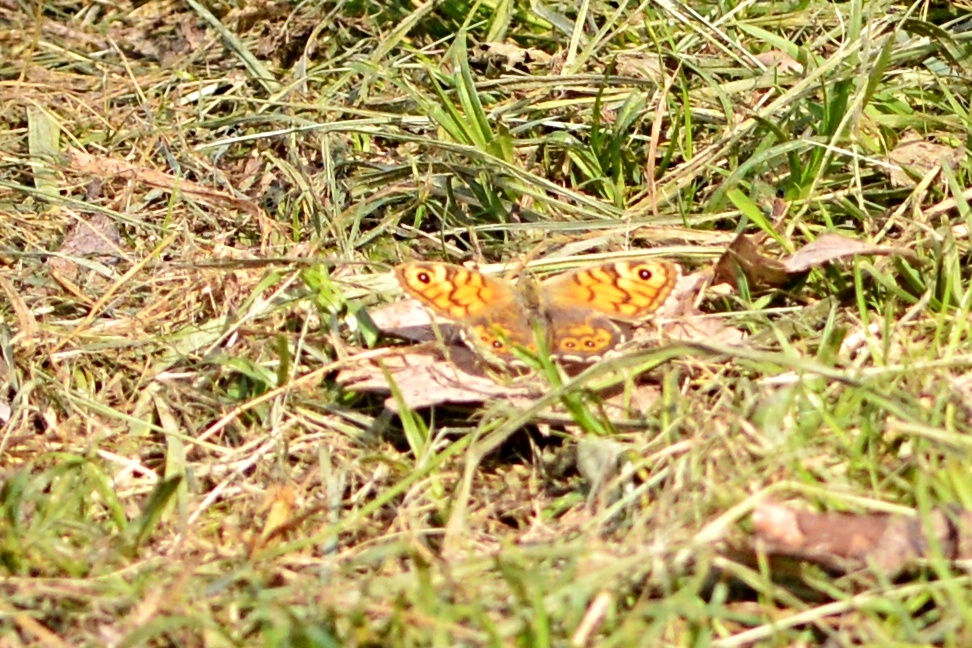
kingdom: Animalia
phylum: Arthropoda
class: Insecta
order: Lepidoptera
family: Nymphalidae
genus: Pararge
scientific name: Pararge Lasiommata megera
